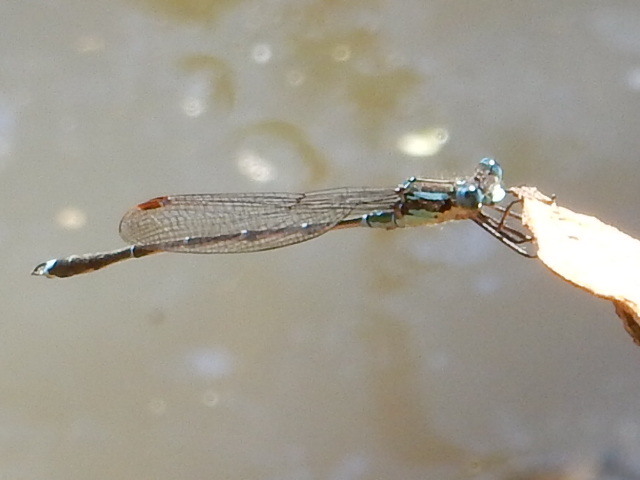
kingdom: Animalia
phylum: Arthropoda
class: Insecta
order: Odonata
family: Lestidae
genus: Austrolestes
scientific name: Austrolestes colensonis
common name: Blue damselfly
